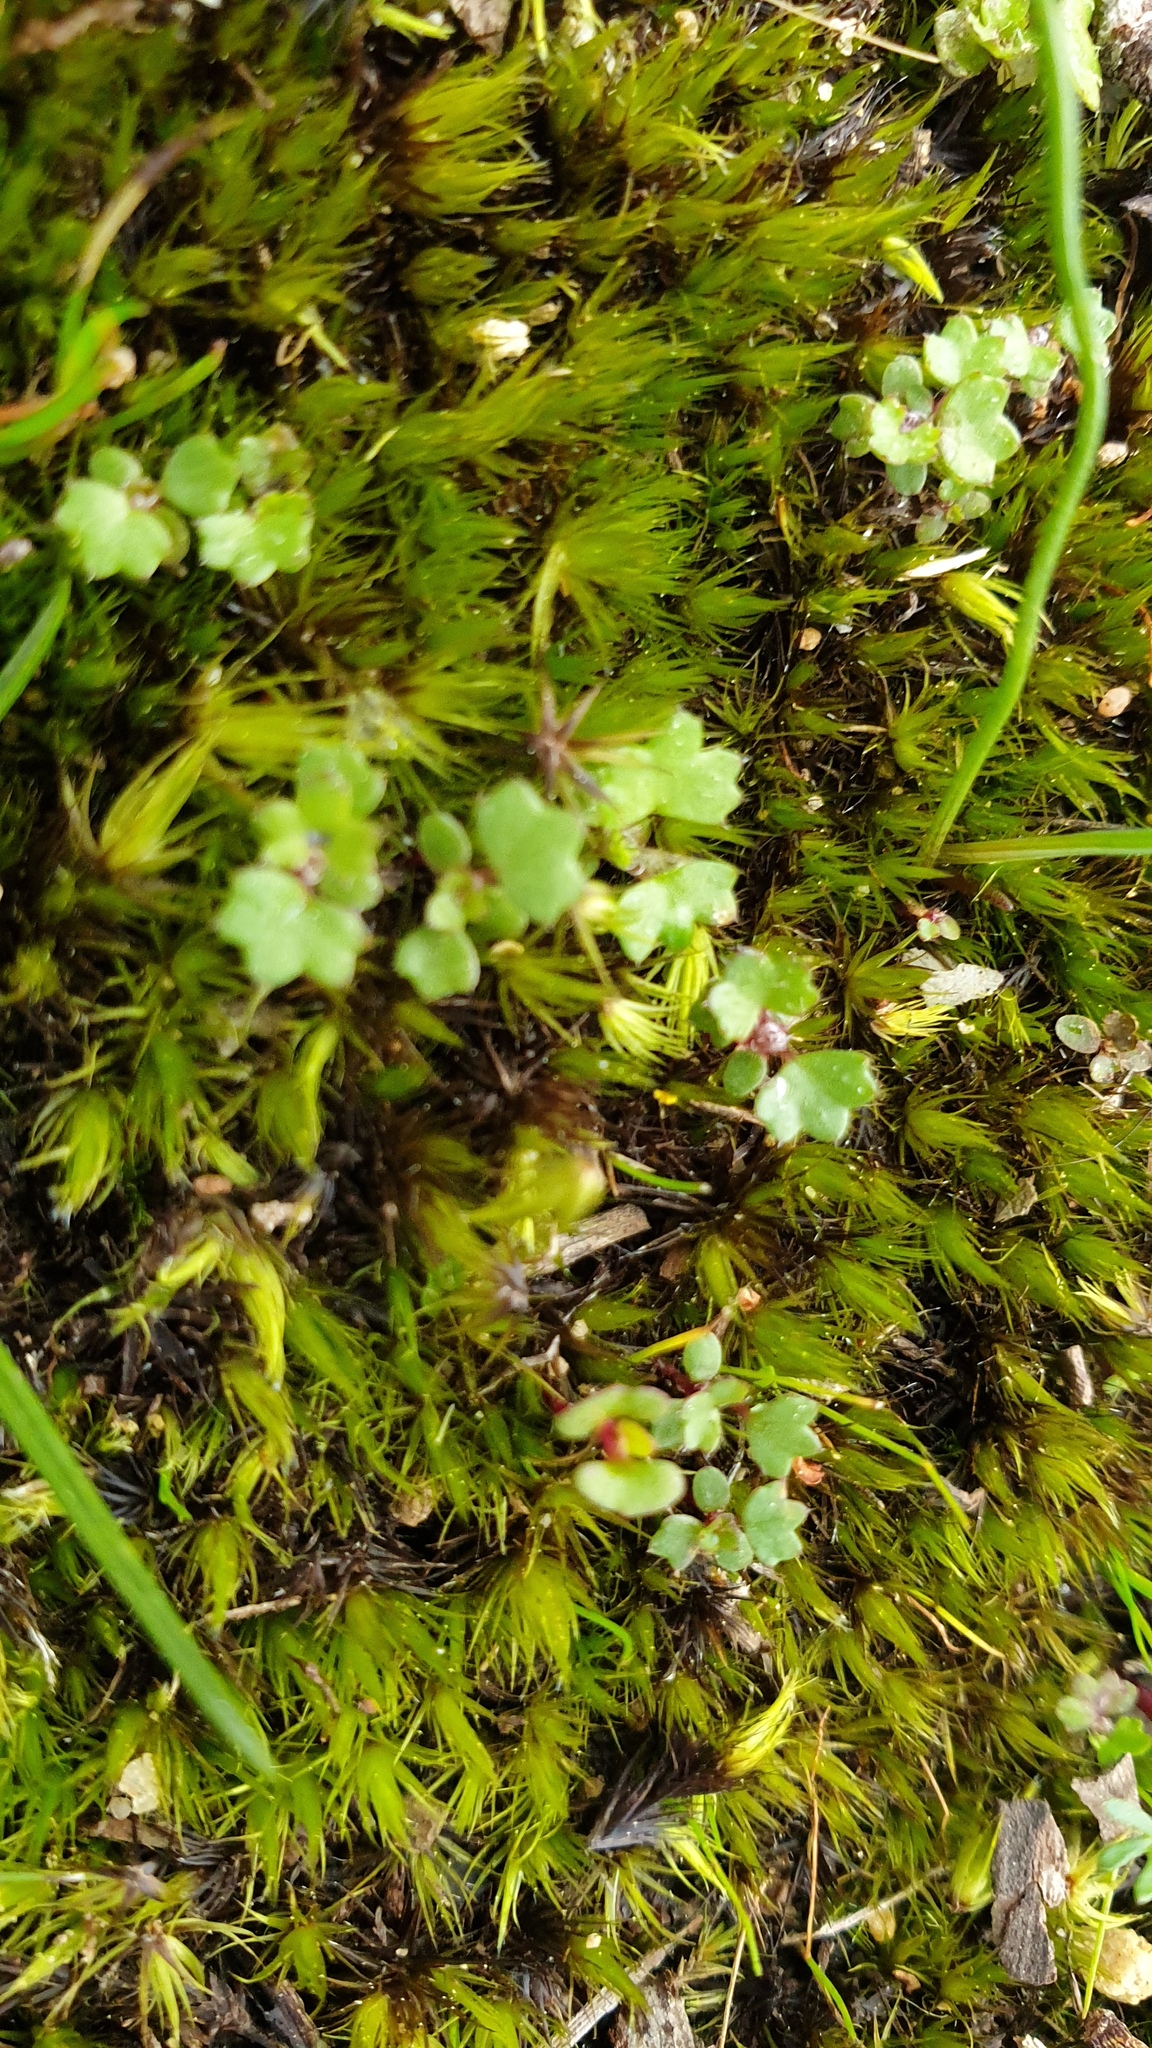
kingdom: Plantae
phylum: Tracheophyta
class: Magnoliopsida
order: Apiales
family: Araliaceae
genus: Hydrocotyle
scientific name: Hydrocotyle callicarpa
